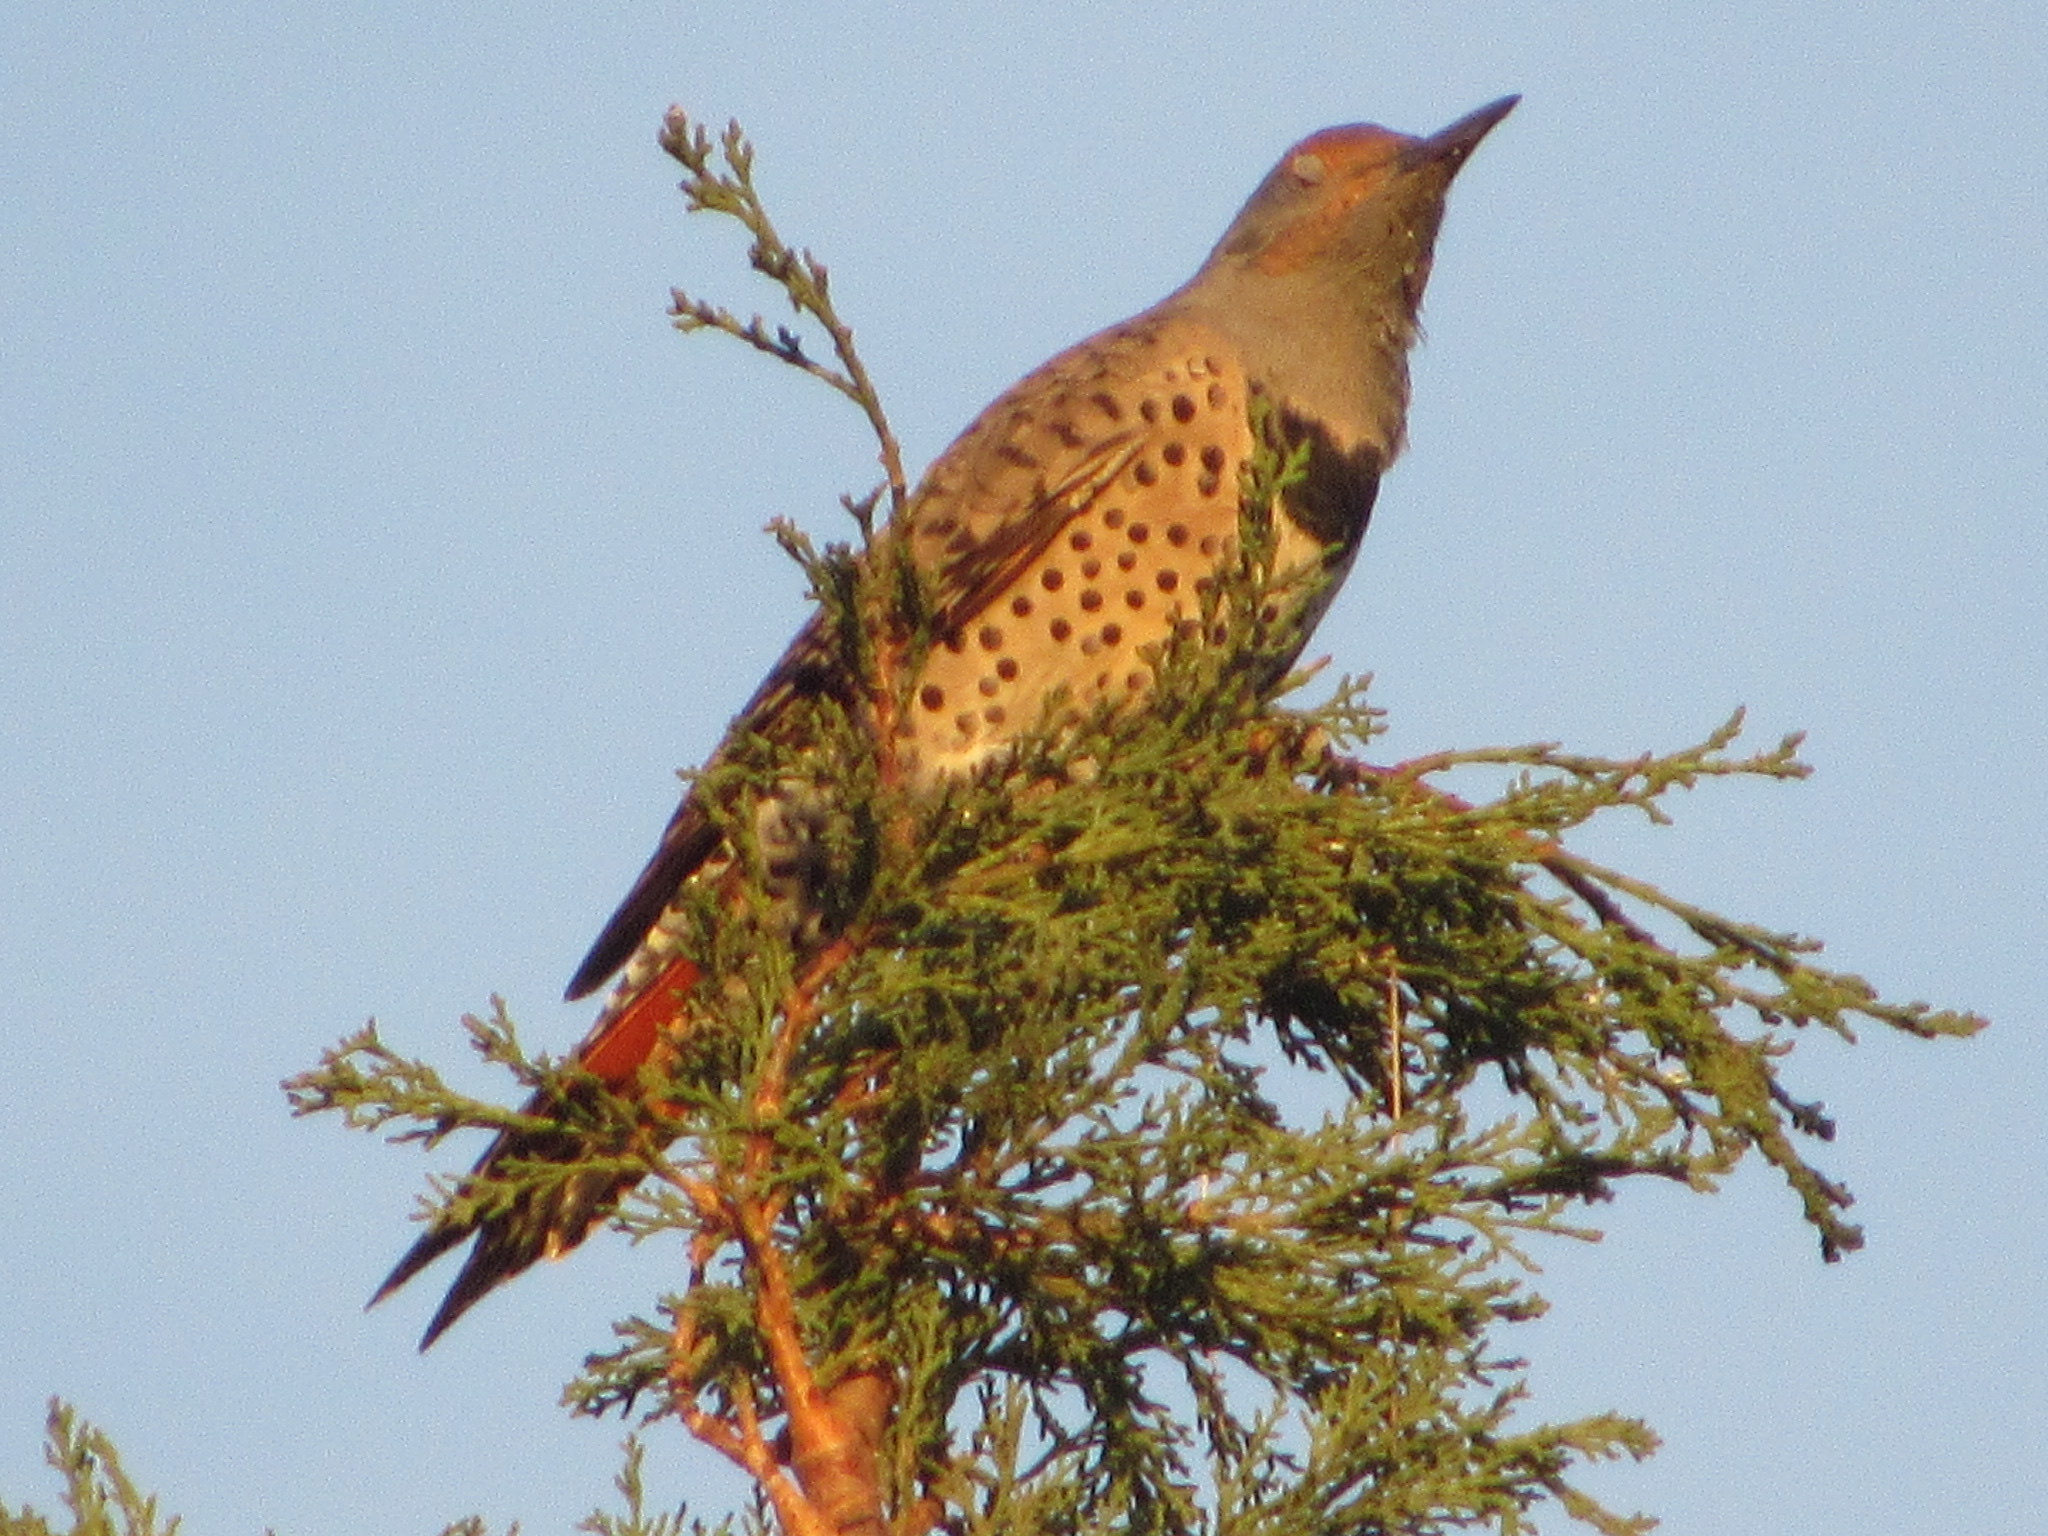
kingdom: Animalia
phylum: Chordata
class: Aves
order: Piciformes
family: Picidae
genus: Colaptes
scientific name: Colaptes auratus
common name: Northern flicker
